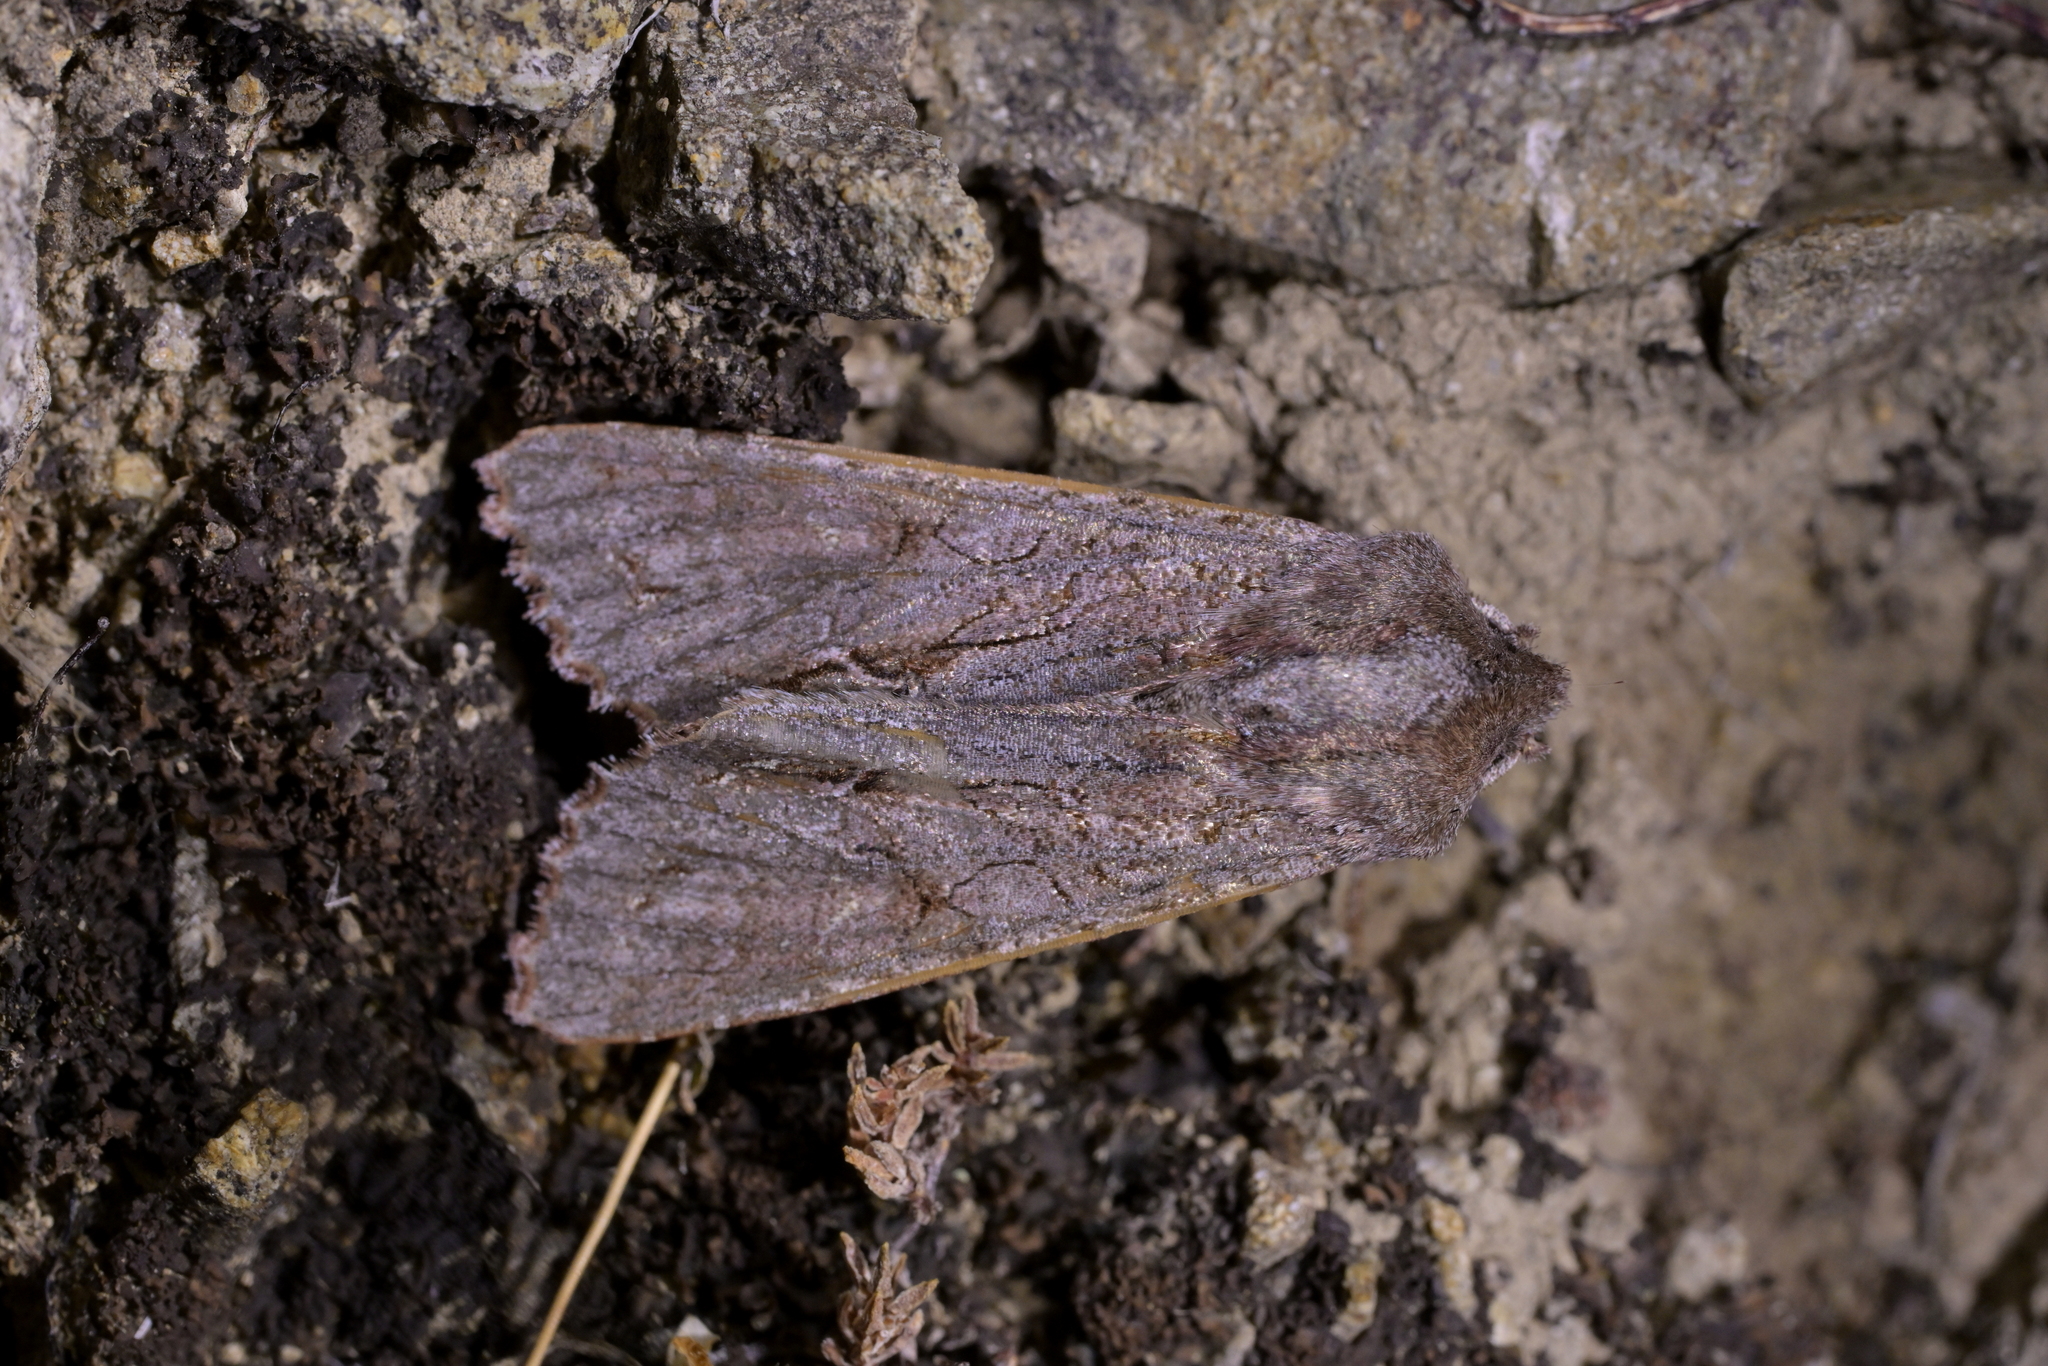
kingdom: Animalia
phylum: Arthropoda
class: Insecta
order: Lepidoptera
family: Noctuidae
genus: Ichneutica
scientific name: Ichneutica
